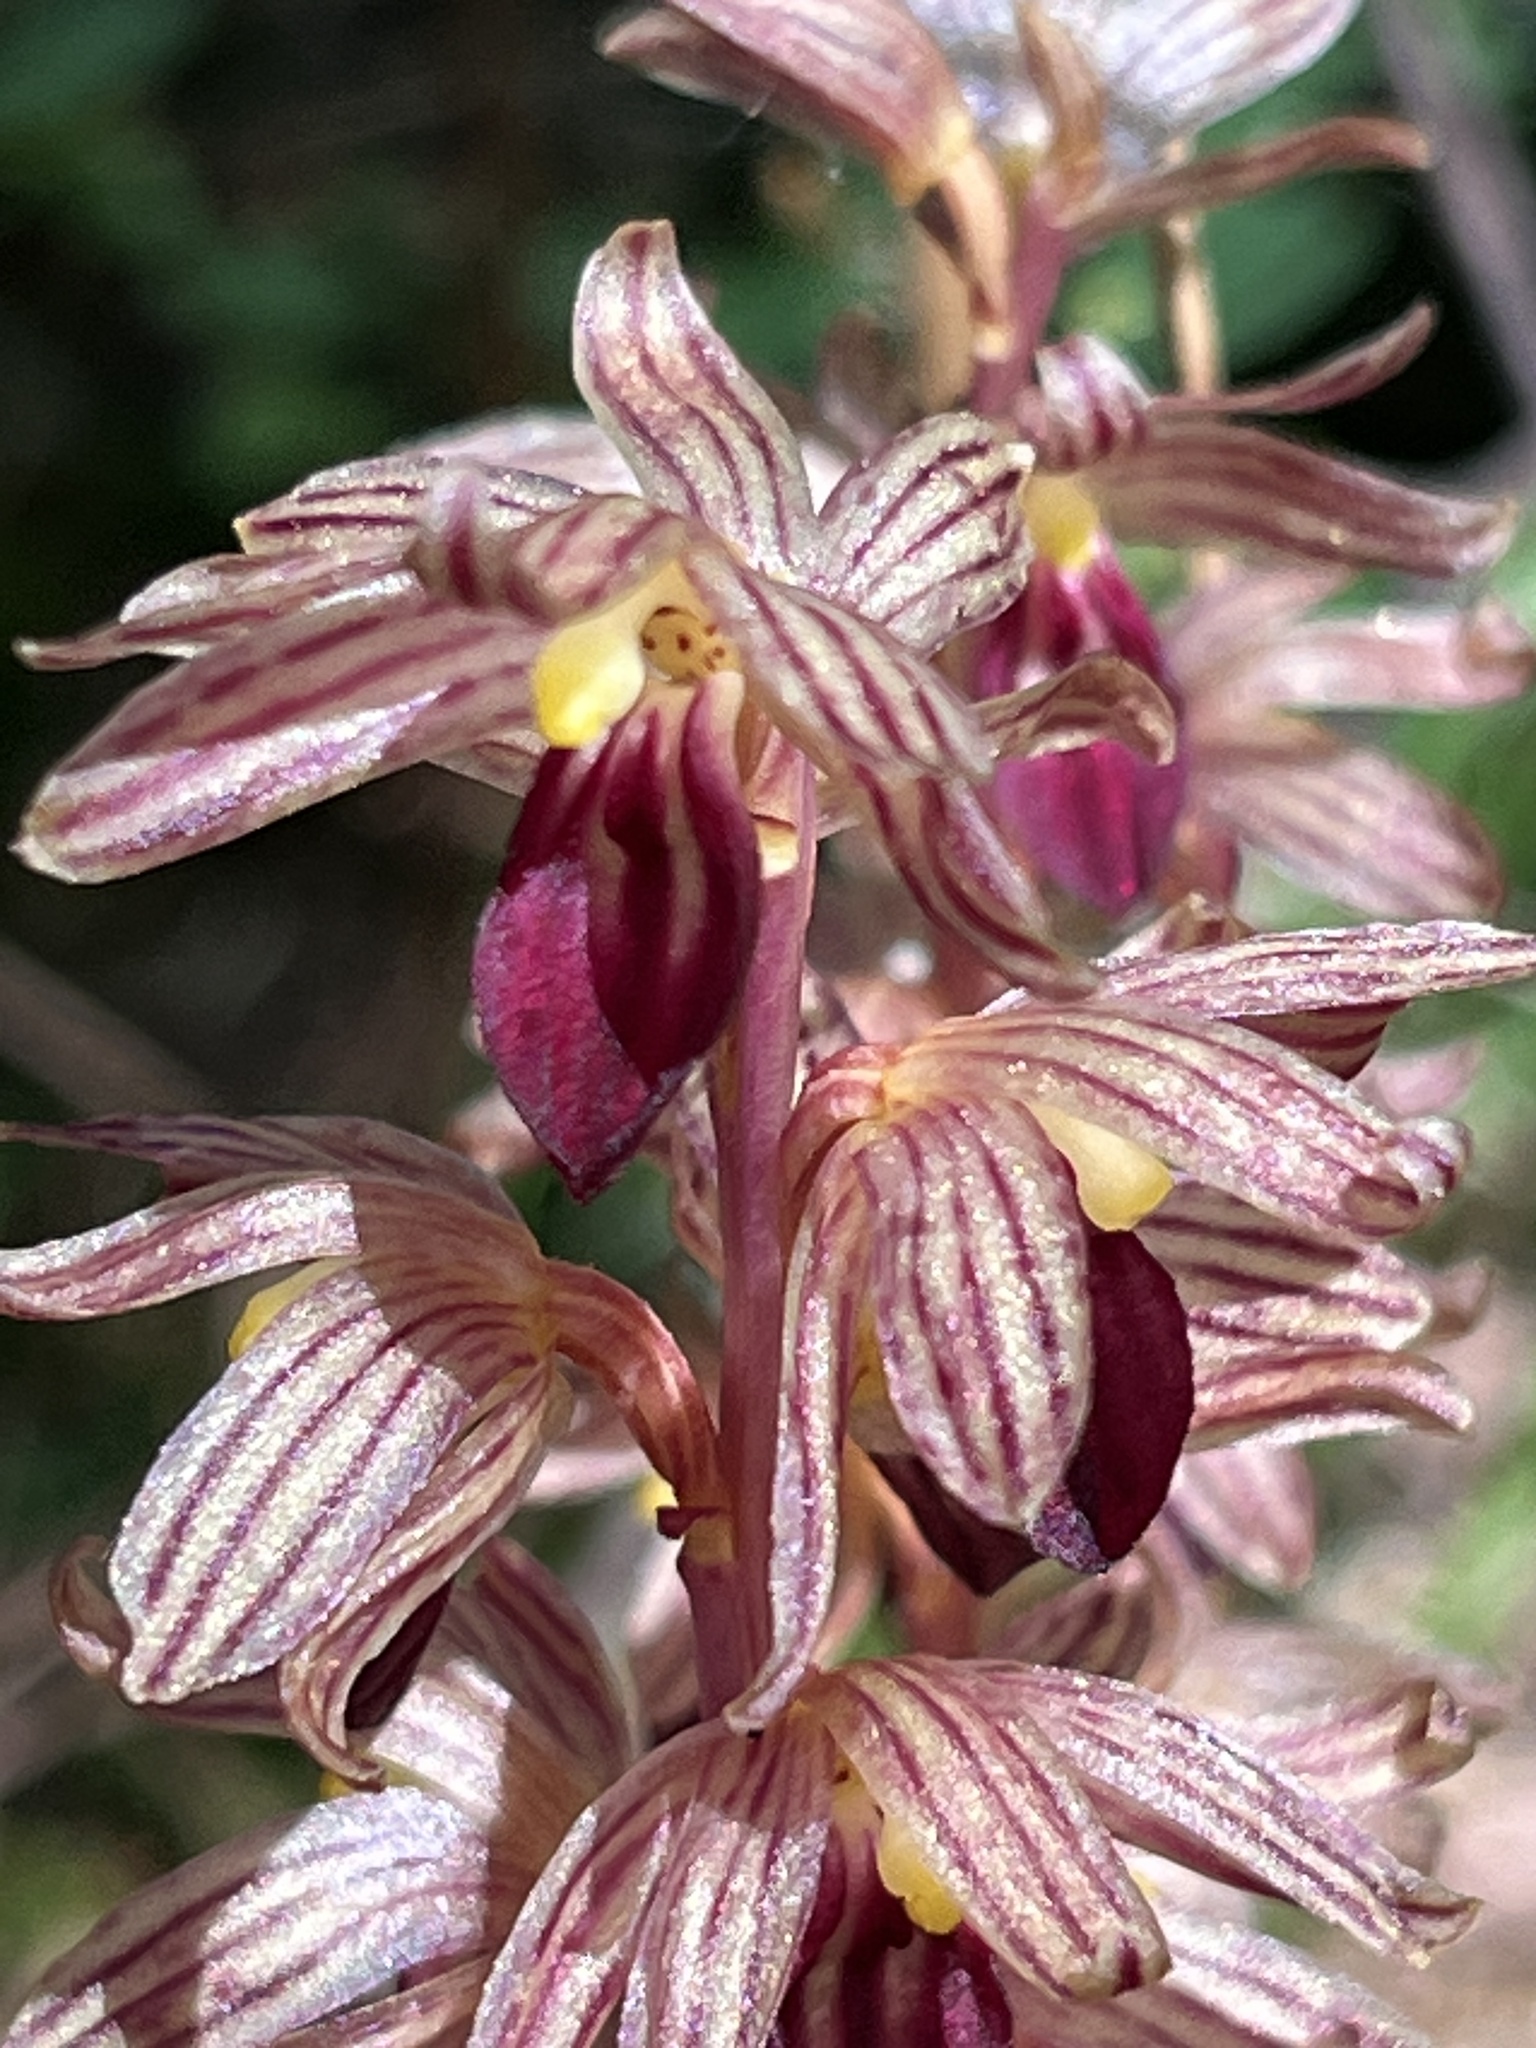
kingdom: Plantae
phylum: Tracheophyta
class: Liliopsida
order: Asparagales
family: Orchidaceae
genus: Corallorhiza
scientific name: Corallorhiza striata
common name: Hooded coralroot
